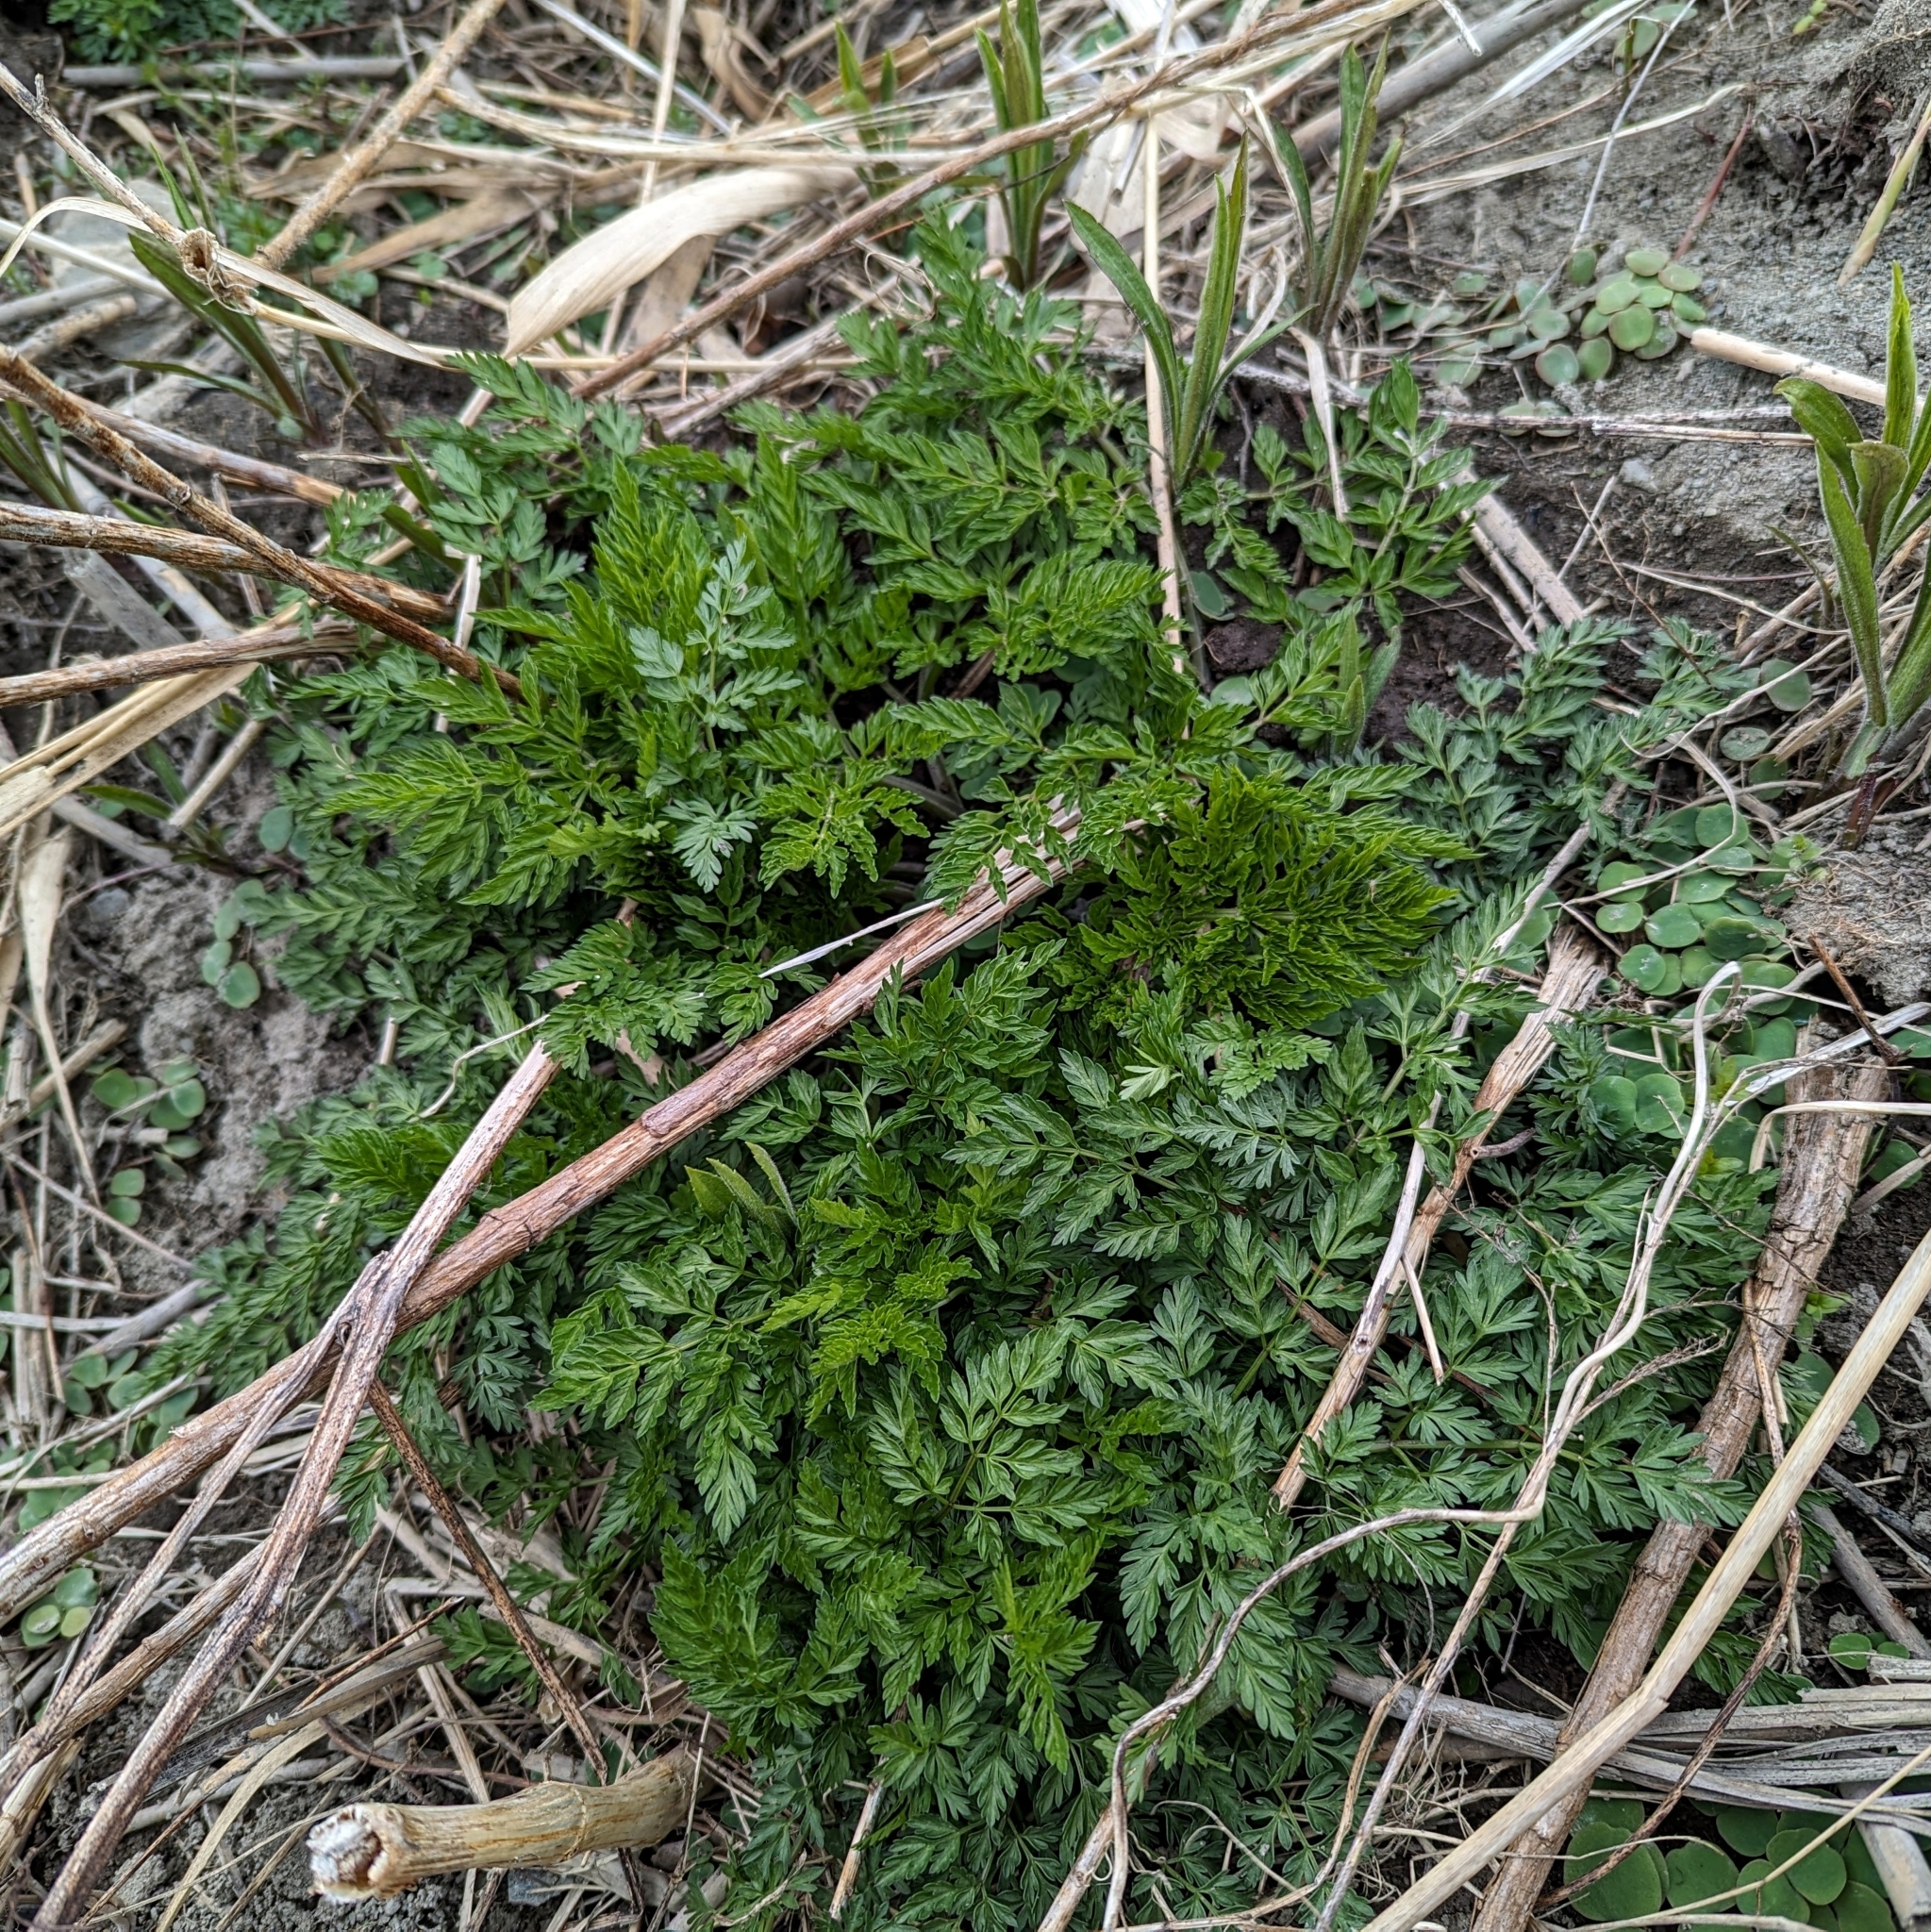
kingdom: Plantae
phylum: Tracheophyta
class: Magnoliopsida
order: Apiales
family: Apiaceae
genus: Anthriscus
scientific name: Anthriscus sylvestris
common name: Cow parsley
